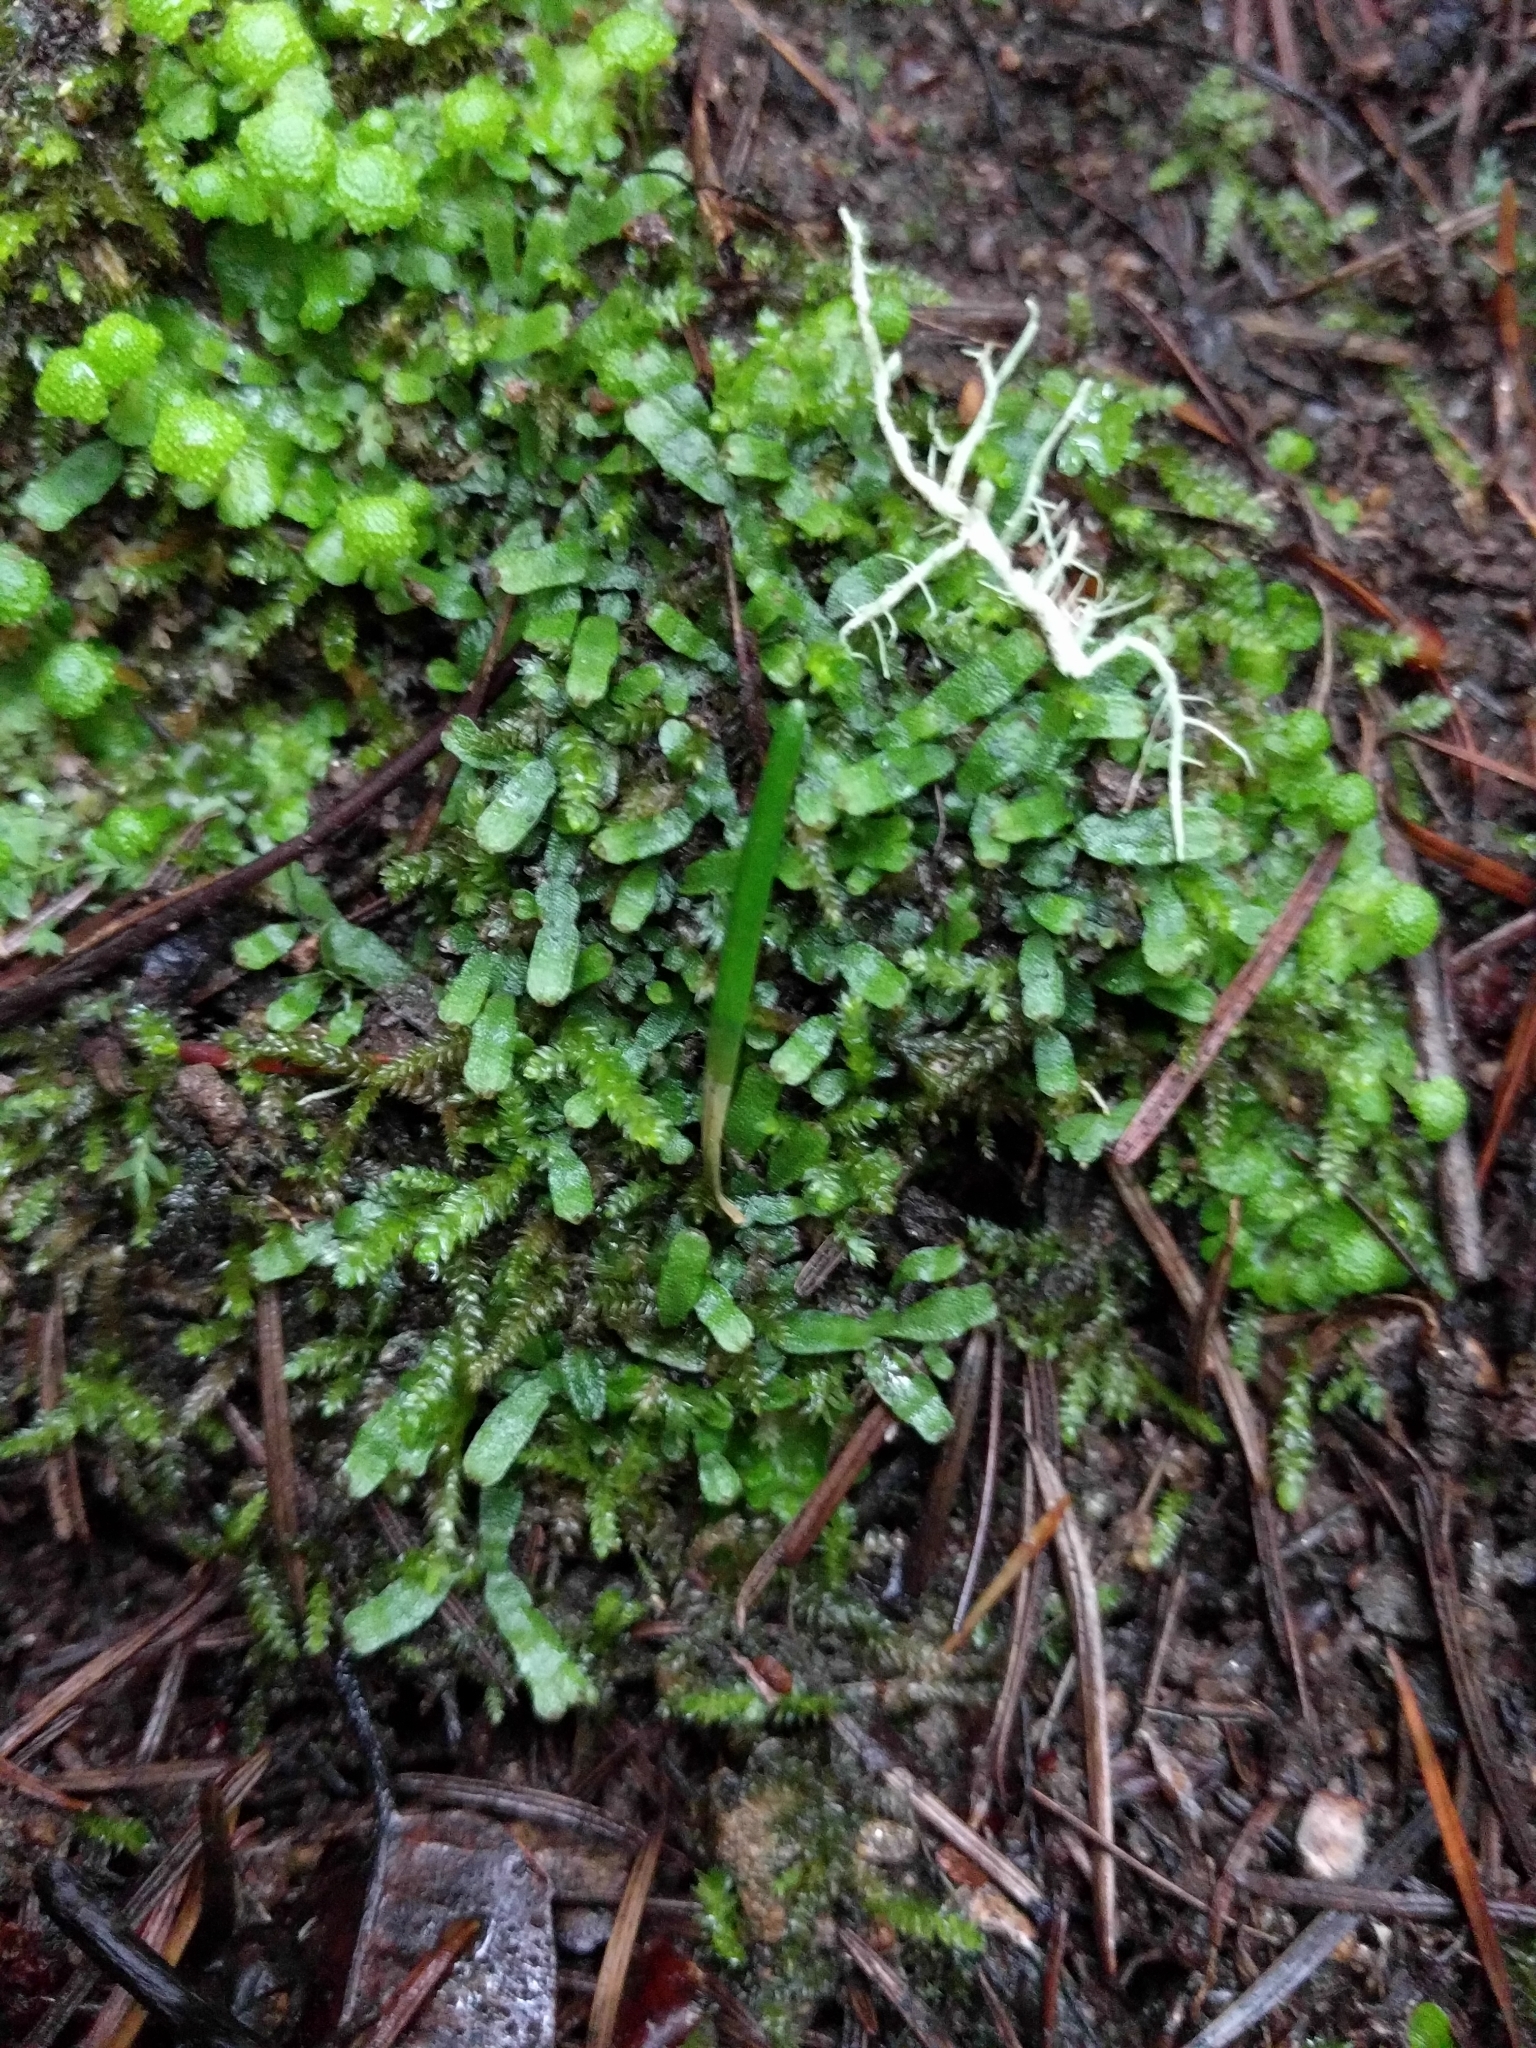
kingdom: Plantae
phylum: Marchantiophyta
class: Marchantiopsida
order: Marchantiales
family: Targioniaceae
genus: Targionia
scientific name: Targionia hypophylla
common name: Orobus-seed liverwort
